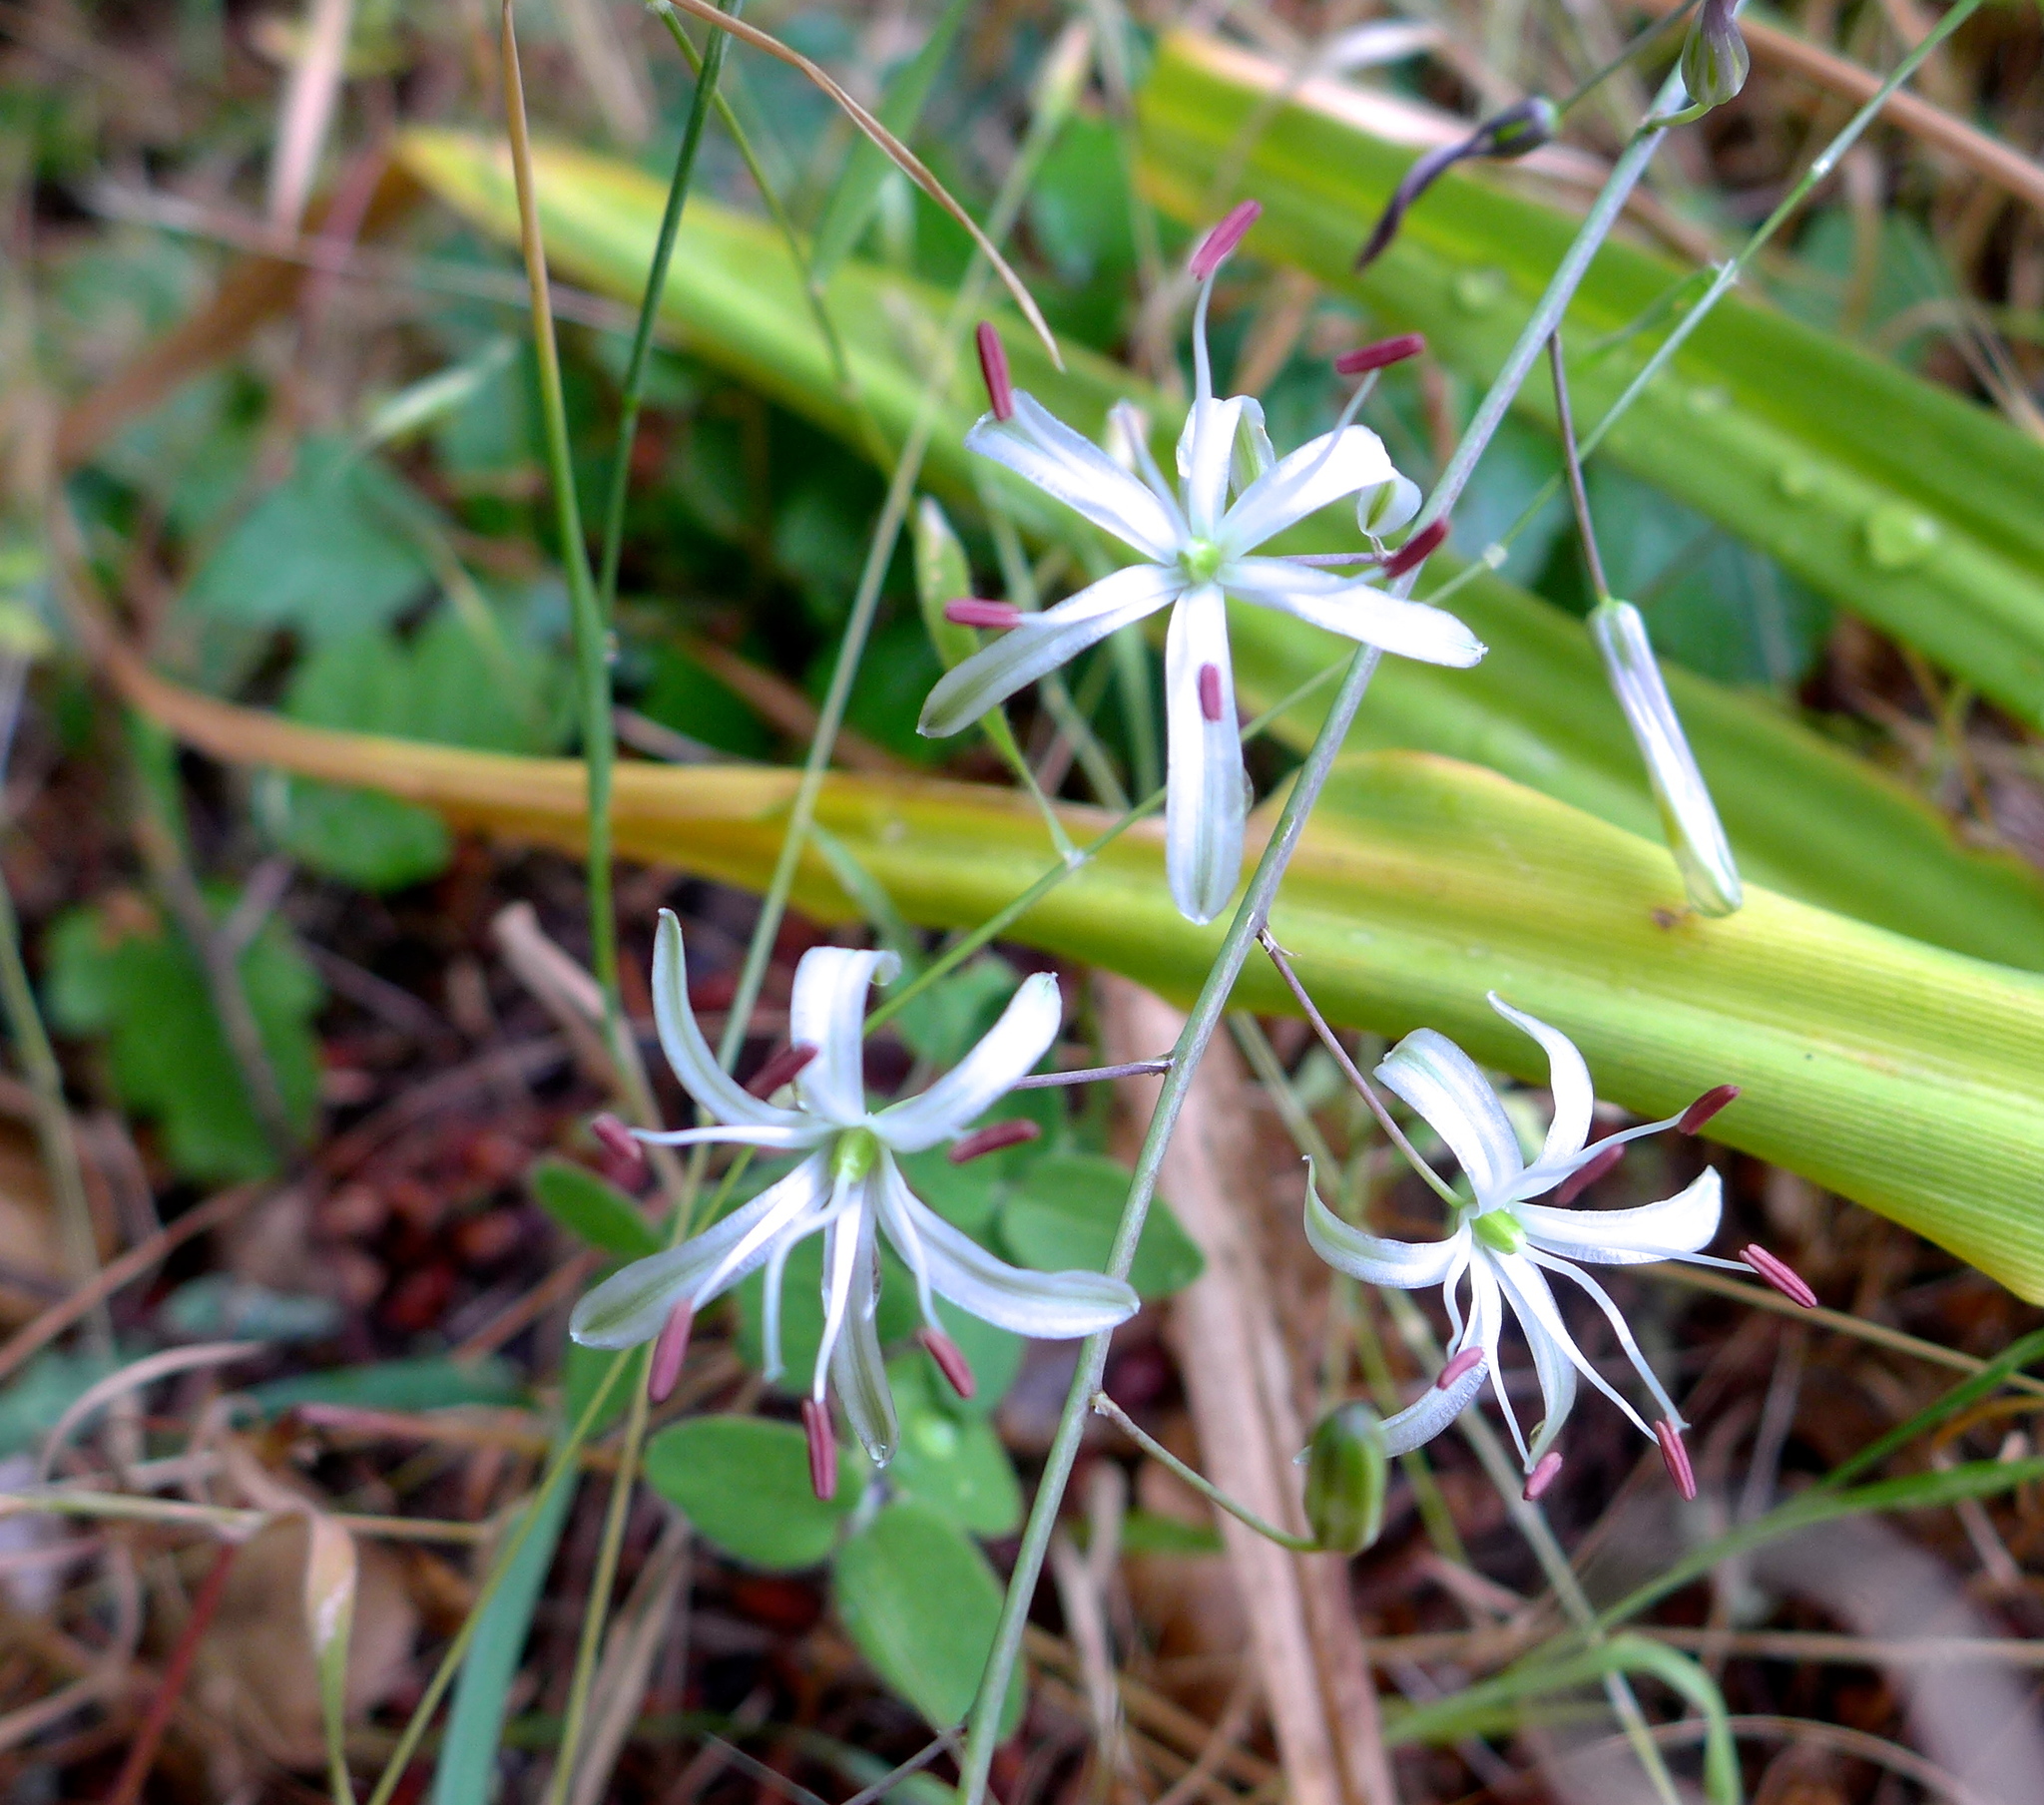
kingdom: Plantae
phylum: Tracheophyta
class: Liliopsida
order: Asparagales
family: Asparagaceae
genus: Chlorogalum
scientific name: Chlorogalum pomeridianum
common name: Amole
